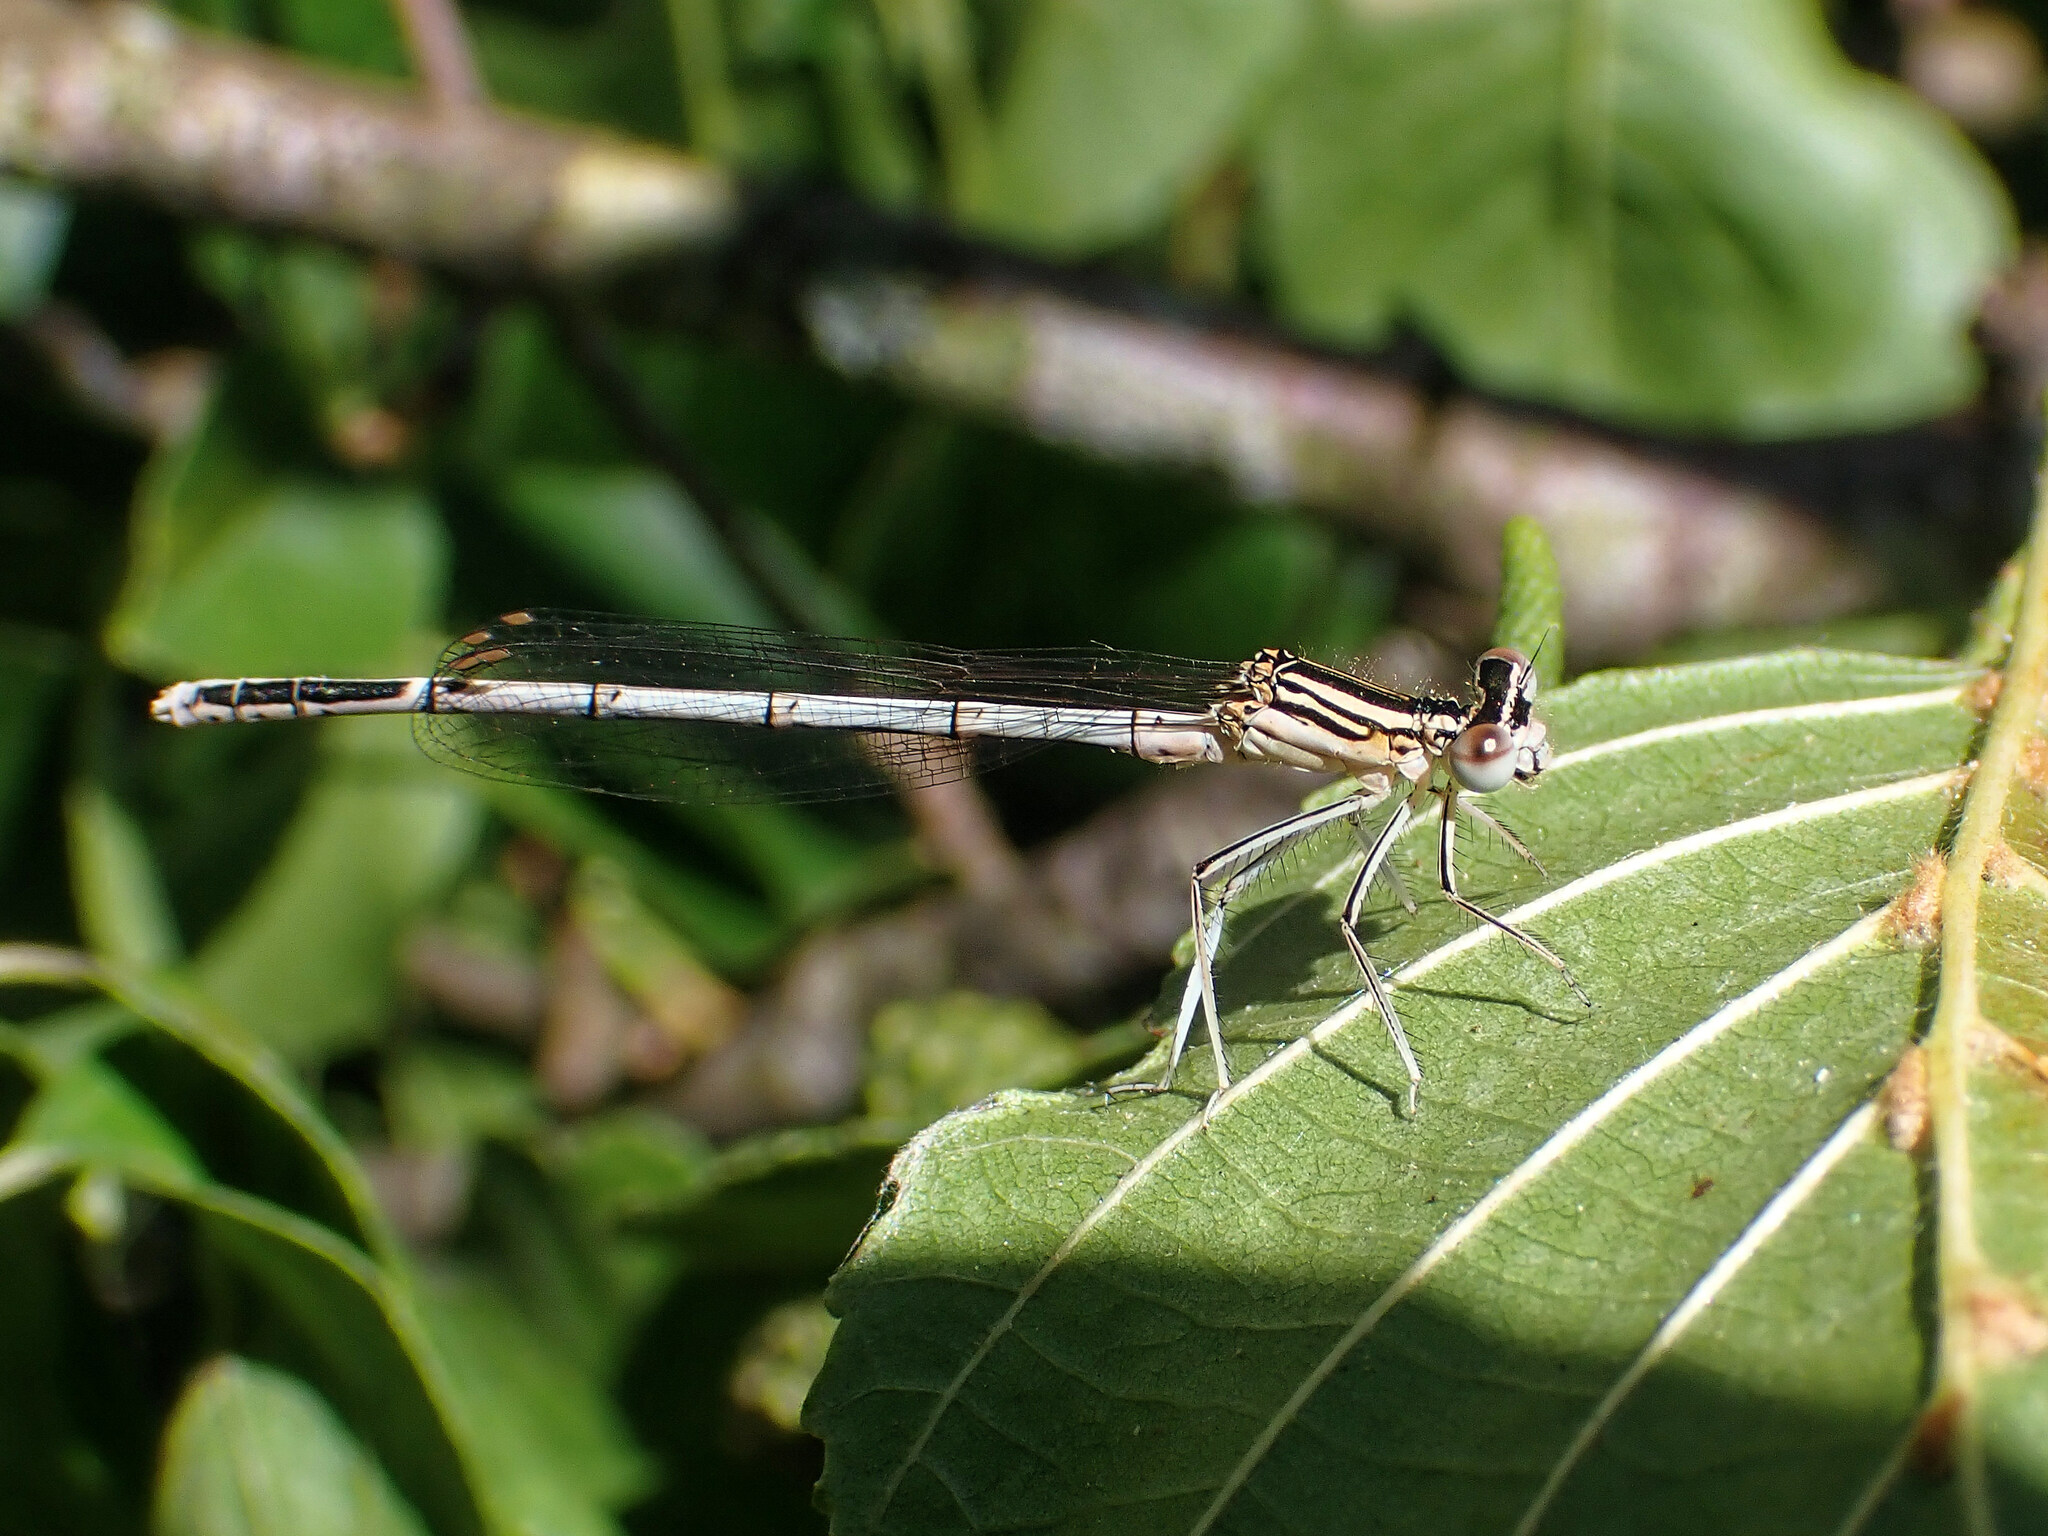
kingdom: Animalia
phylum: Arthropoda
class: Insecta
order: Odonata
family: Platycnemididae
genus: Platycnemis
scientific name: Platycnemis pennipes
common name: White-legged damselfly
